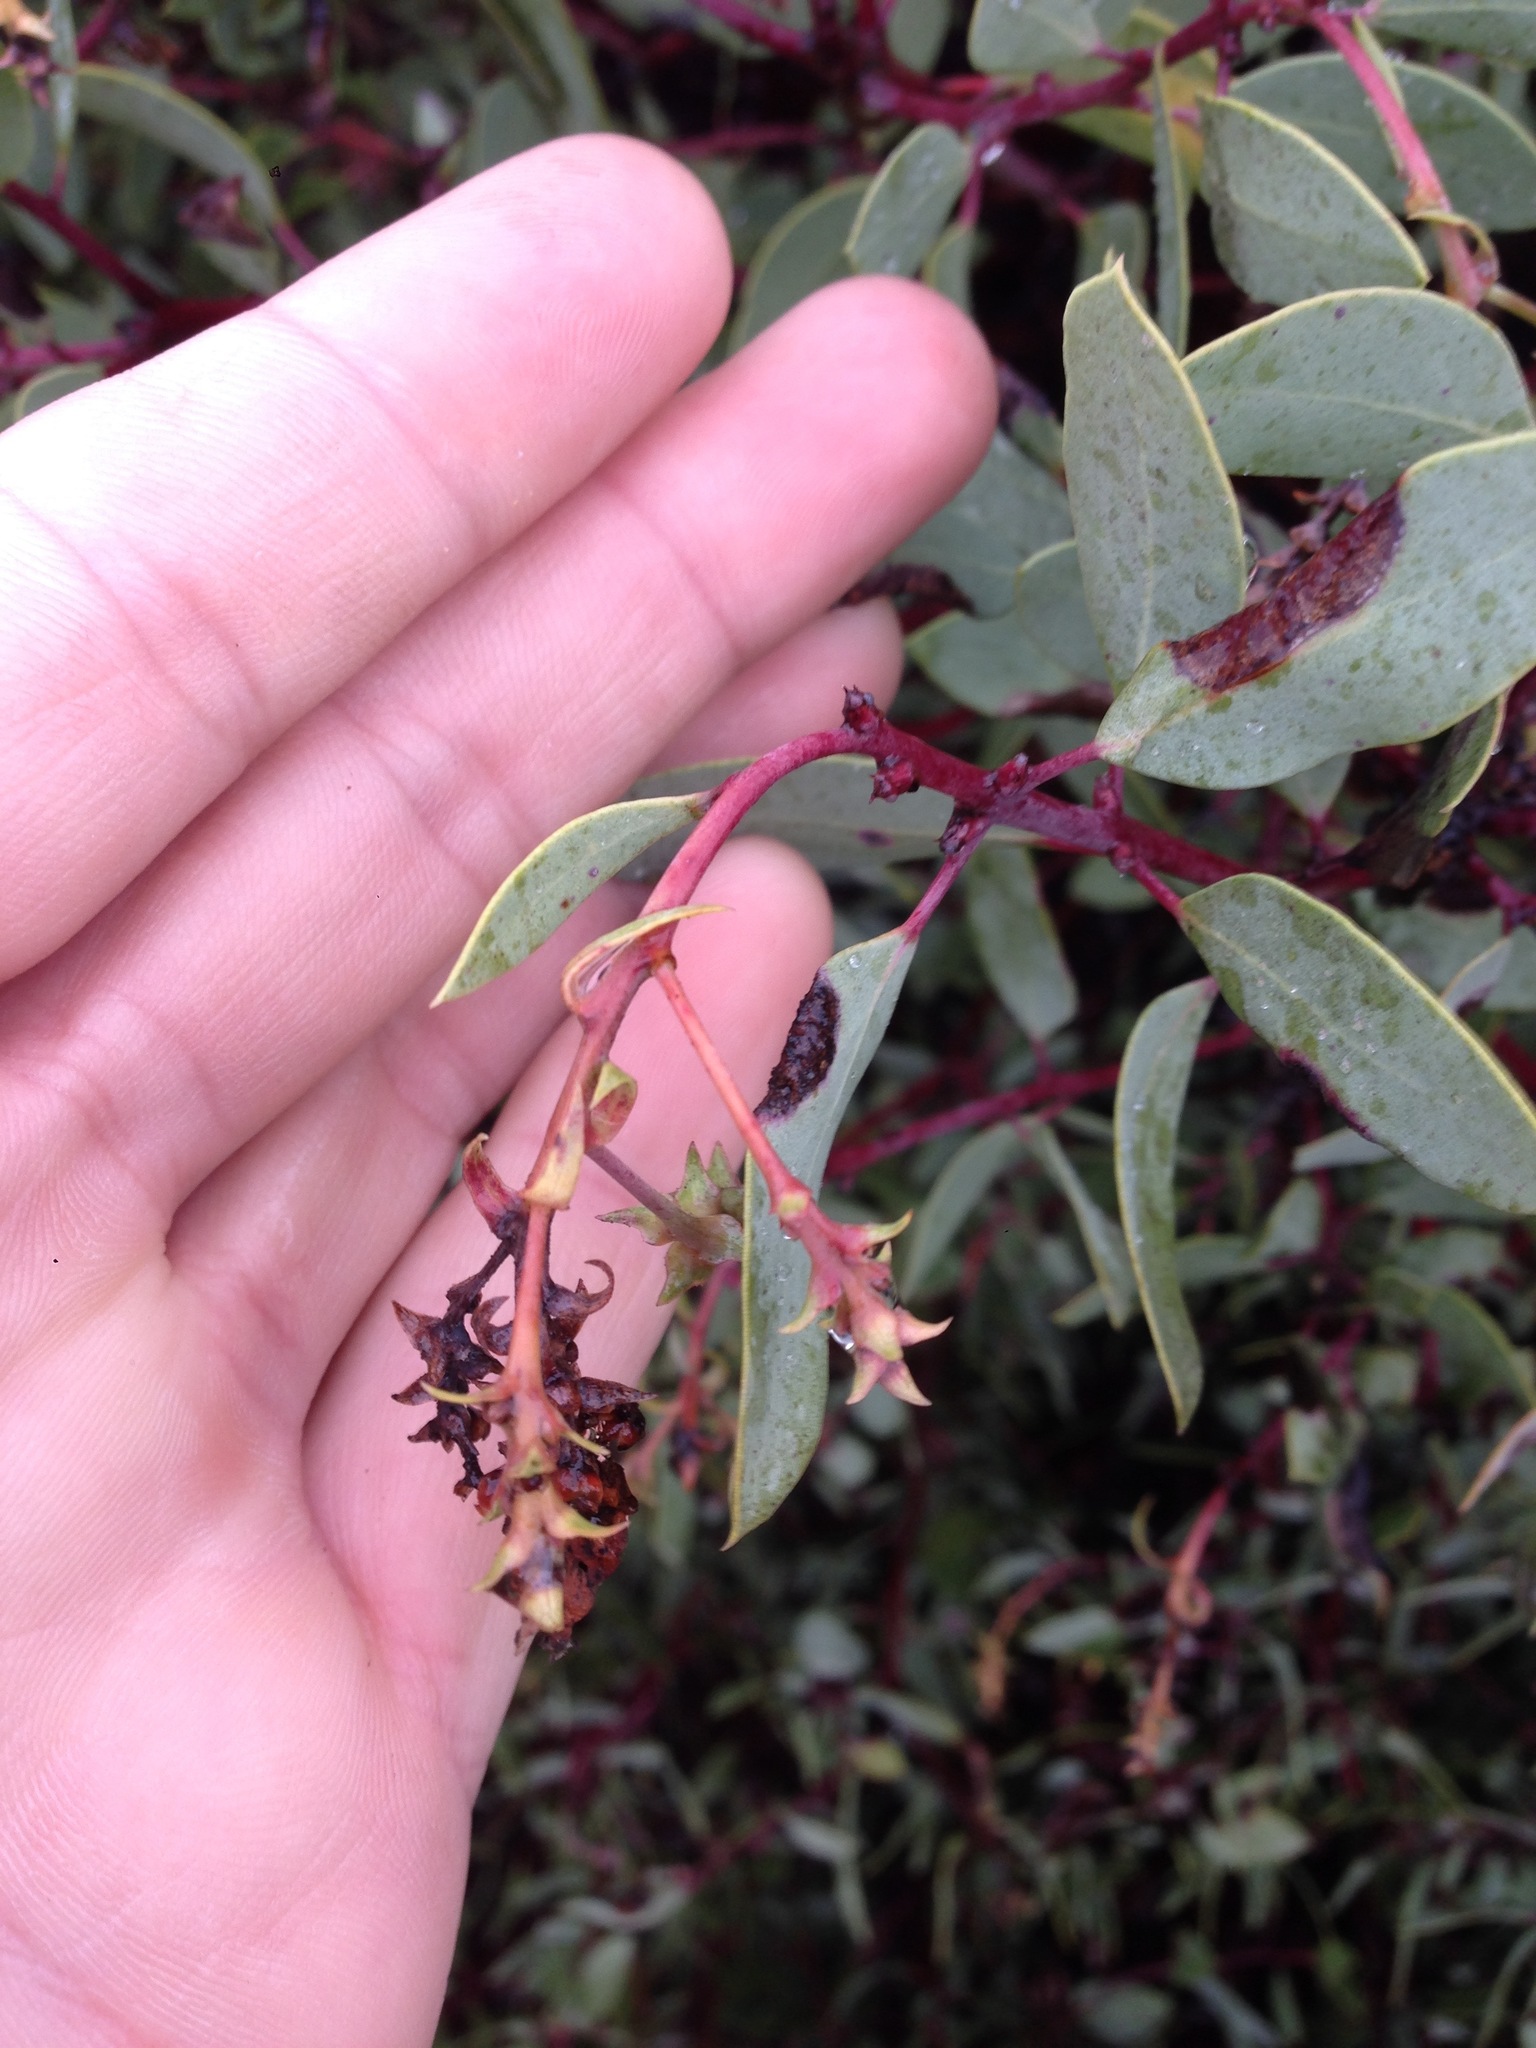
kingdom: Plantae
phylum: Tracheophyta
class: Magnoliopsida
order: Ericales
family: Ericaceae
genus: Arctostaphylos
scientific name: Arctostaphylos glauca
